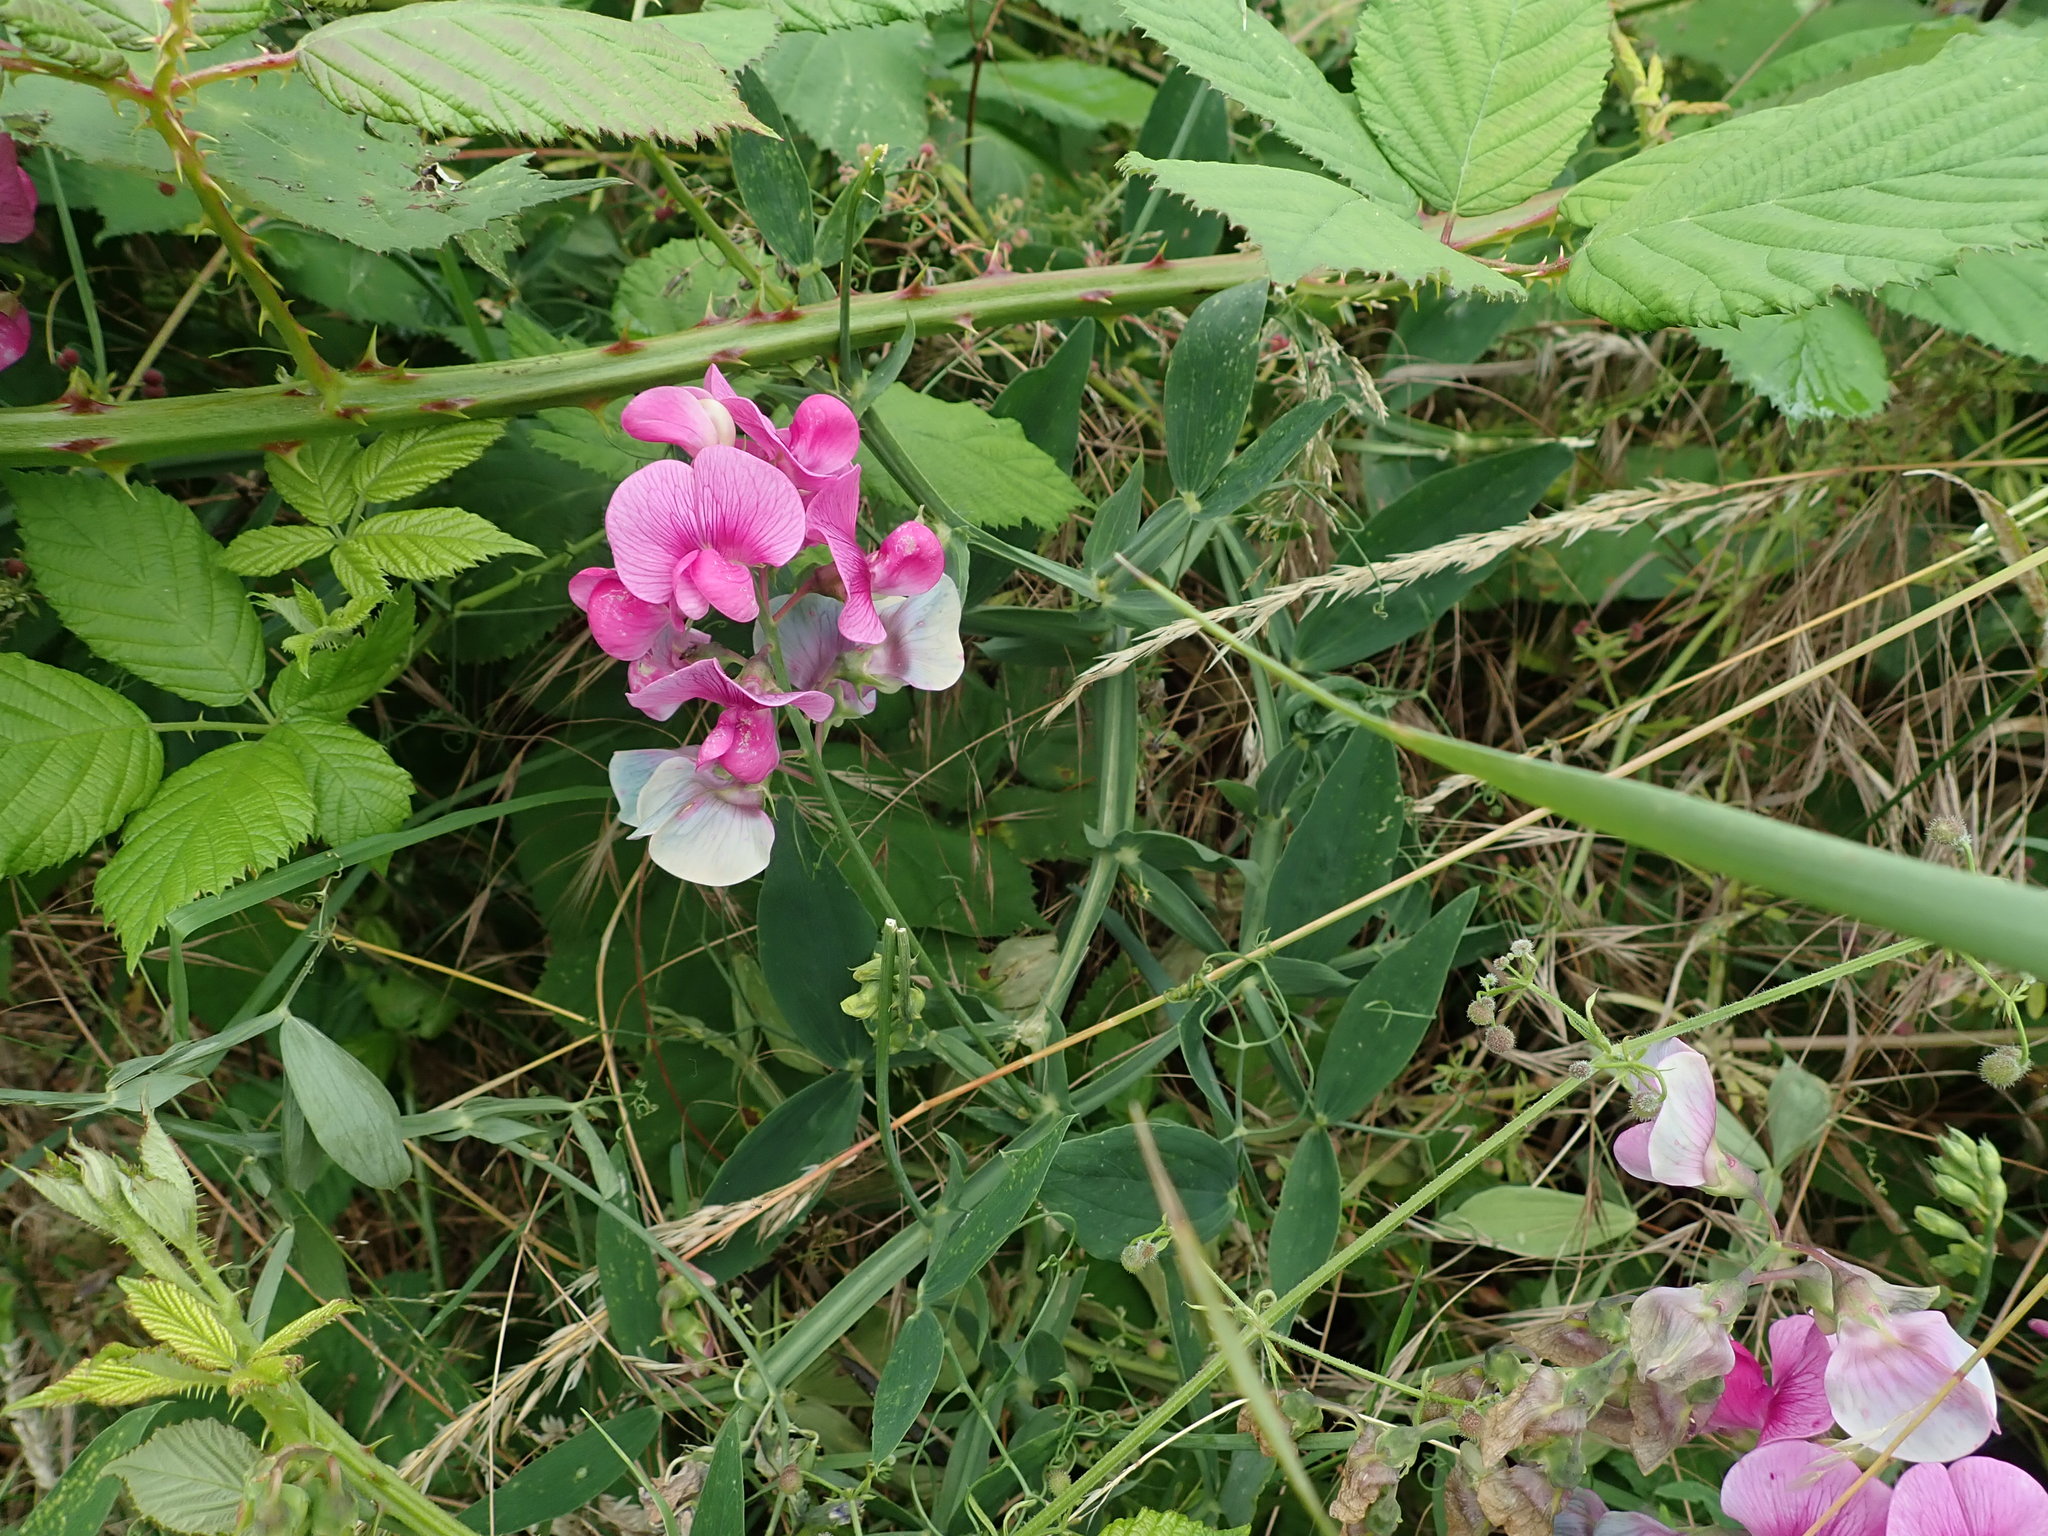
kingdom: Plantae
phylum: Tracheophyta
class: Magnoliopsida
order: Fabales
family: Fabaceae
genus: Lathyrus
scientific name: Lathyrus latifolius
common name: Perennial pea
